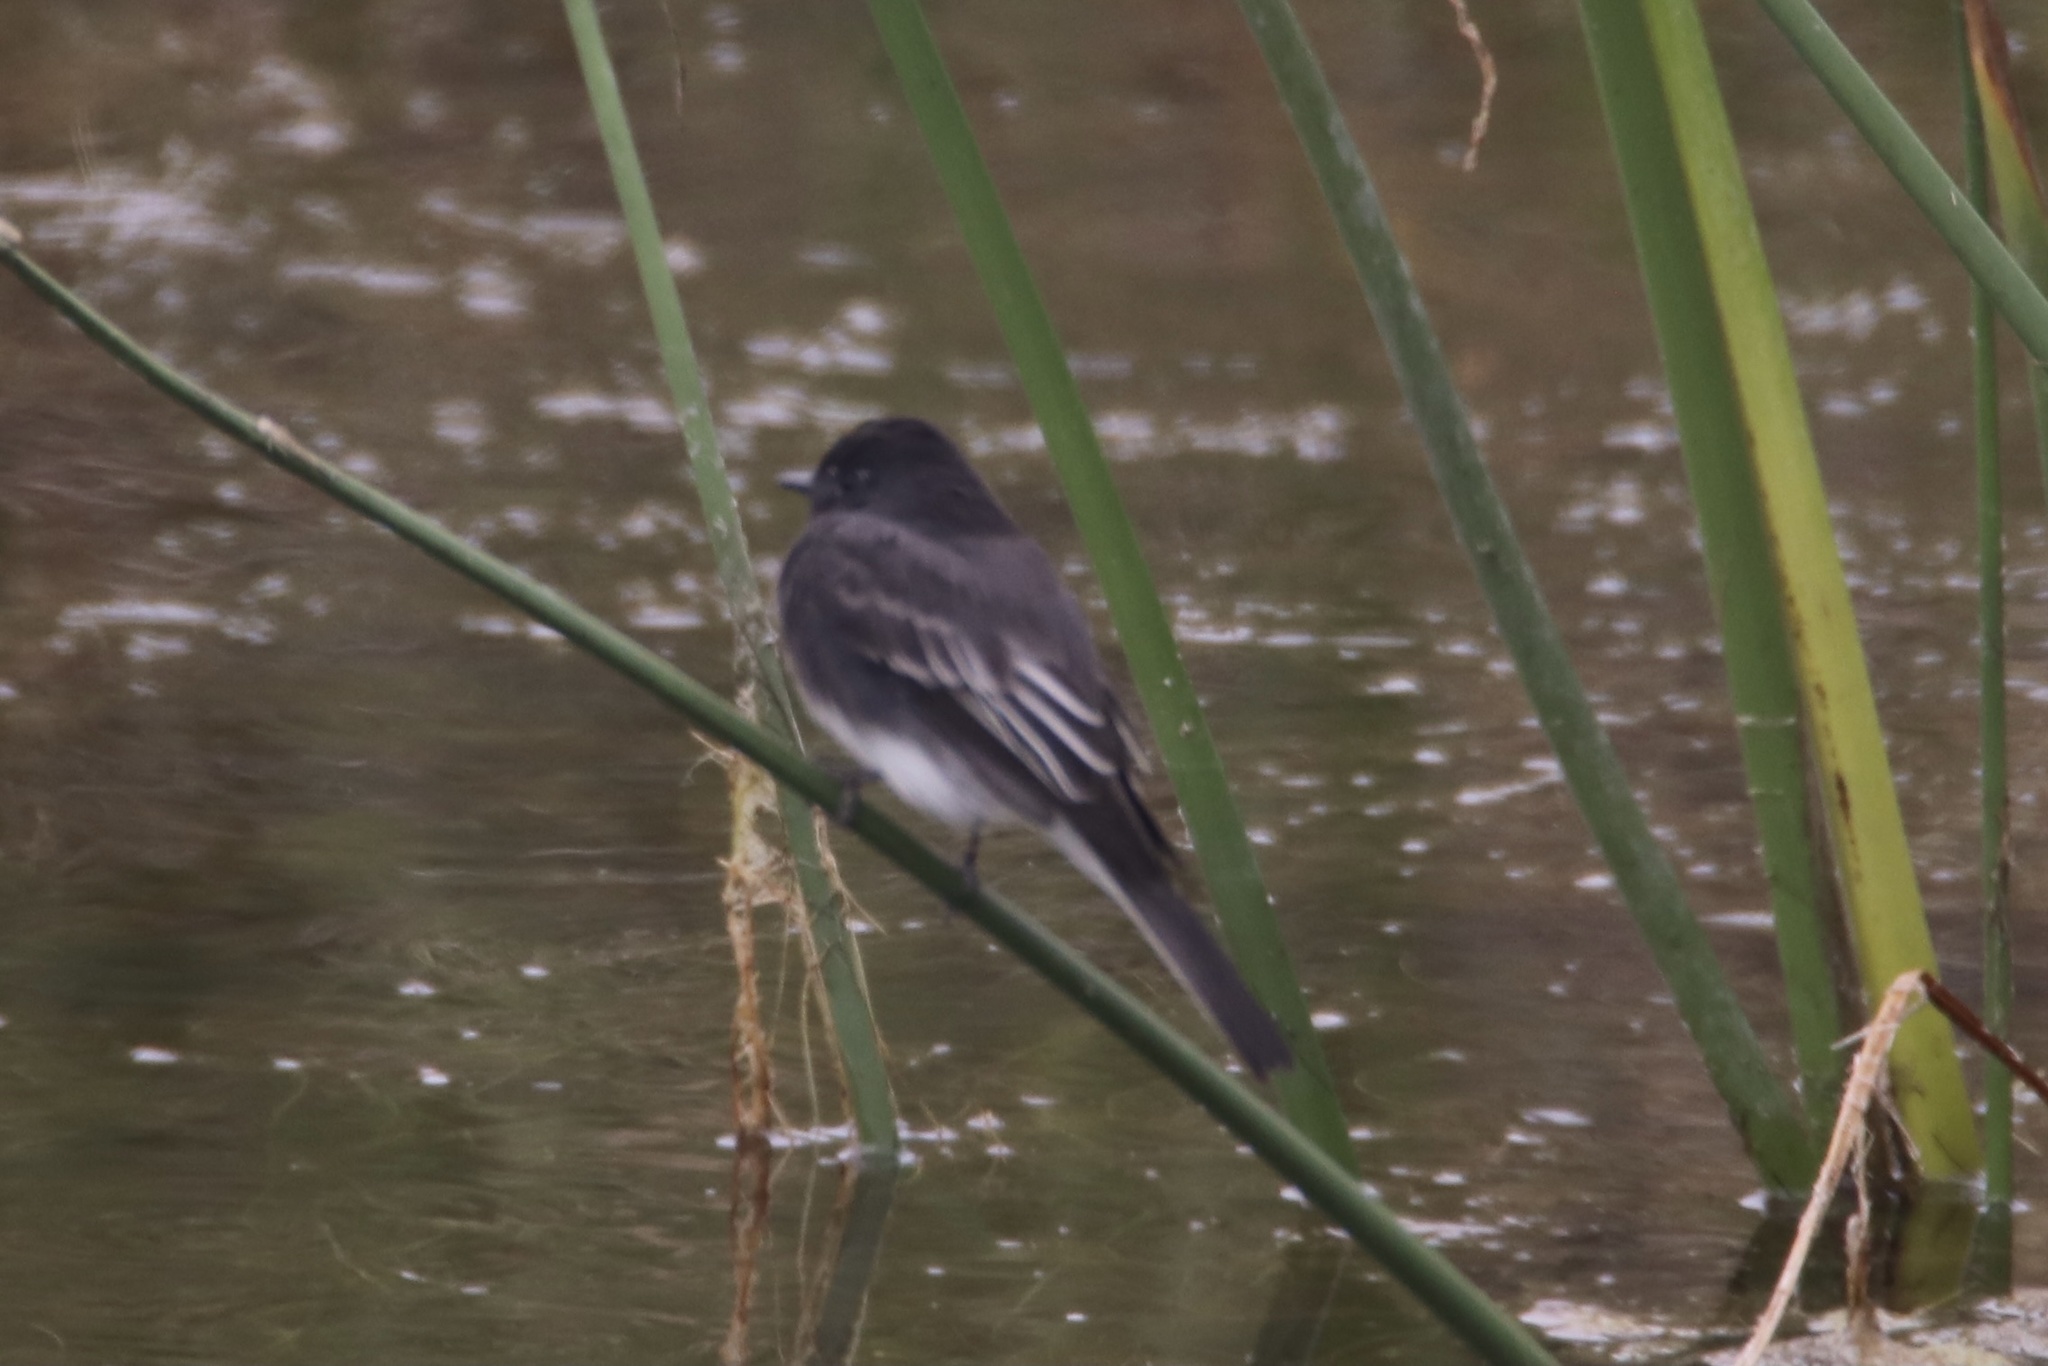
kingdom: Animalia
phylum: Chordata
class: Aves
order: Passeriformes
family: Tyrannidae
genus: Sayornis
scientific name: Sayornis nigricans
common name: Black phoebe
